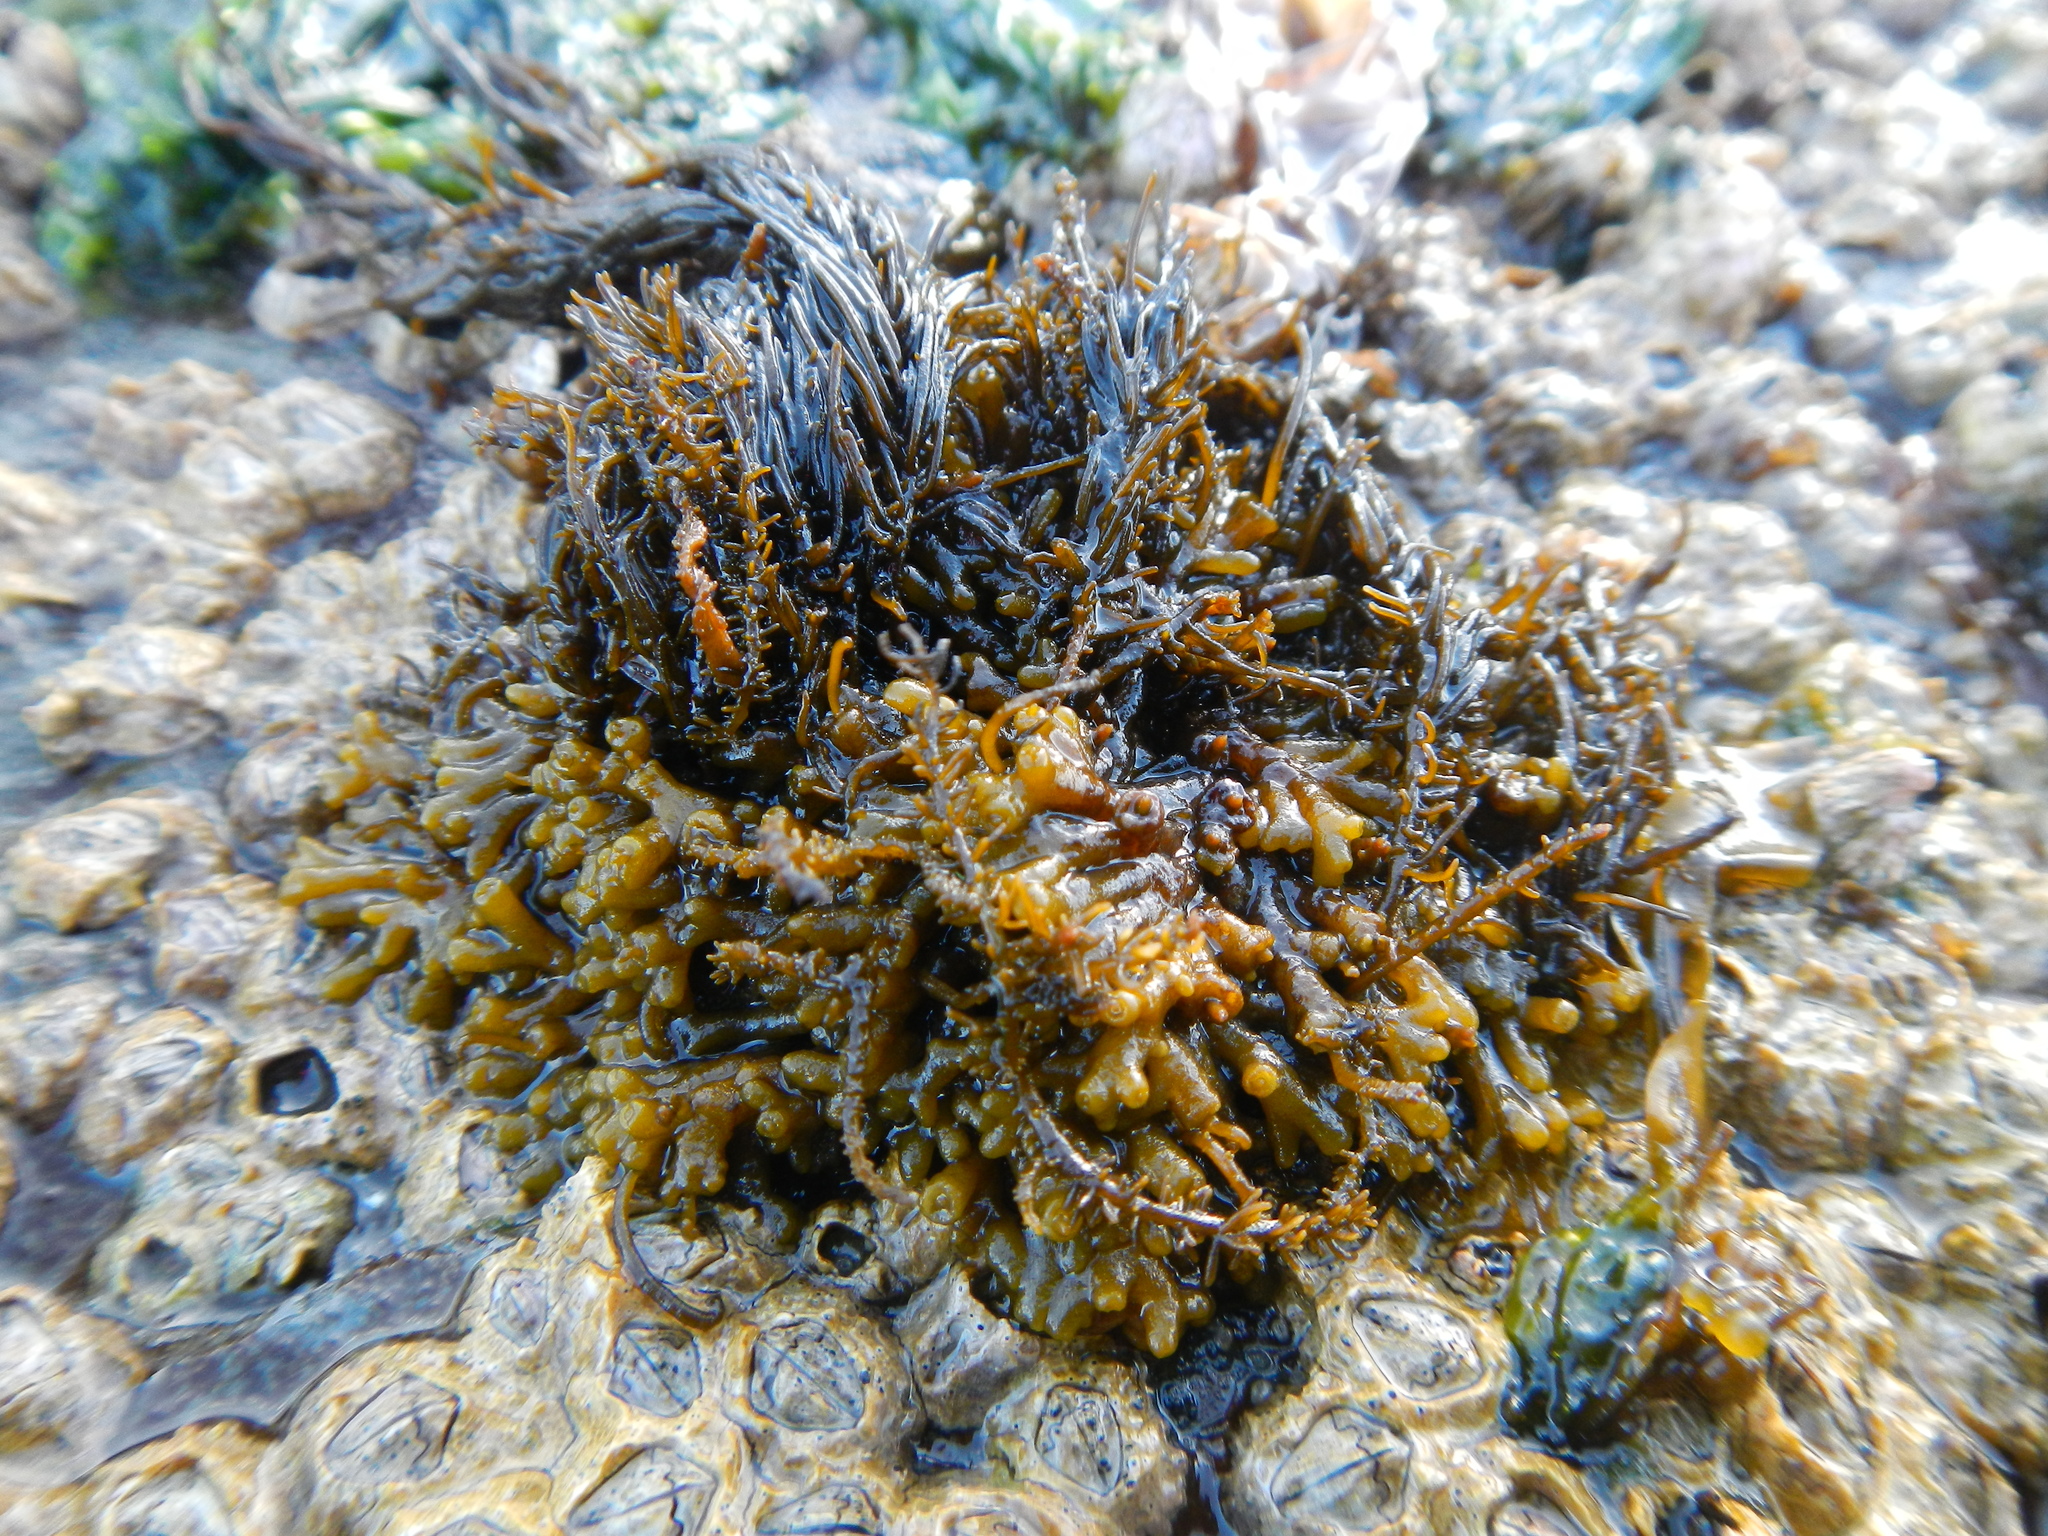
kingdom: Chromista
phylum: Ochrophyta
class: Phaeophyceae
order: Ectocarpales
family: Adenocystaceae
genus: Caepidium
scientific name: Caepidium antarcticum
